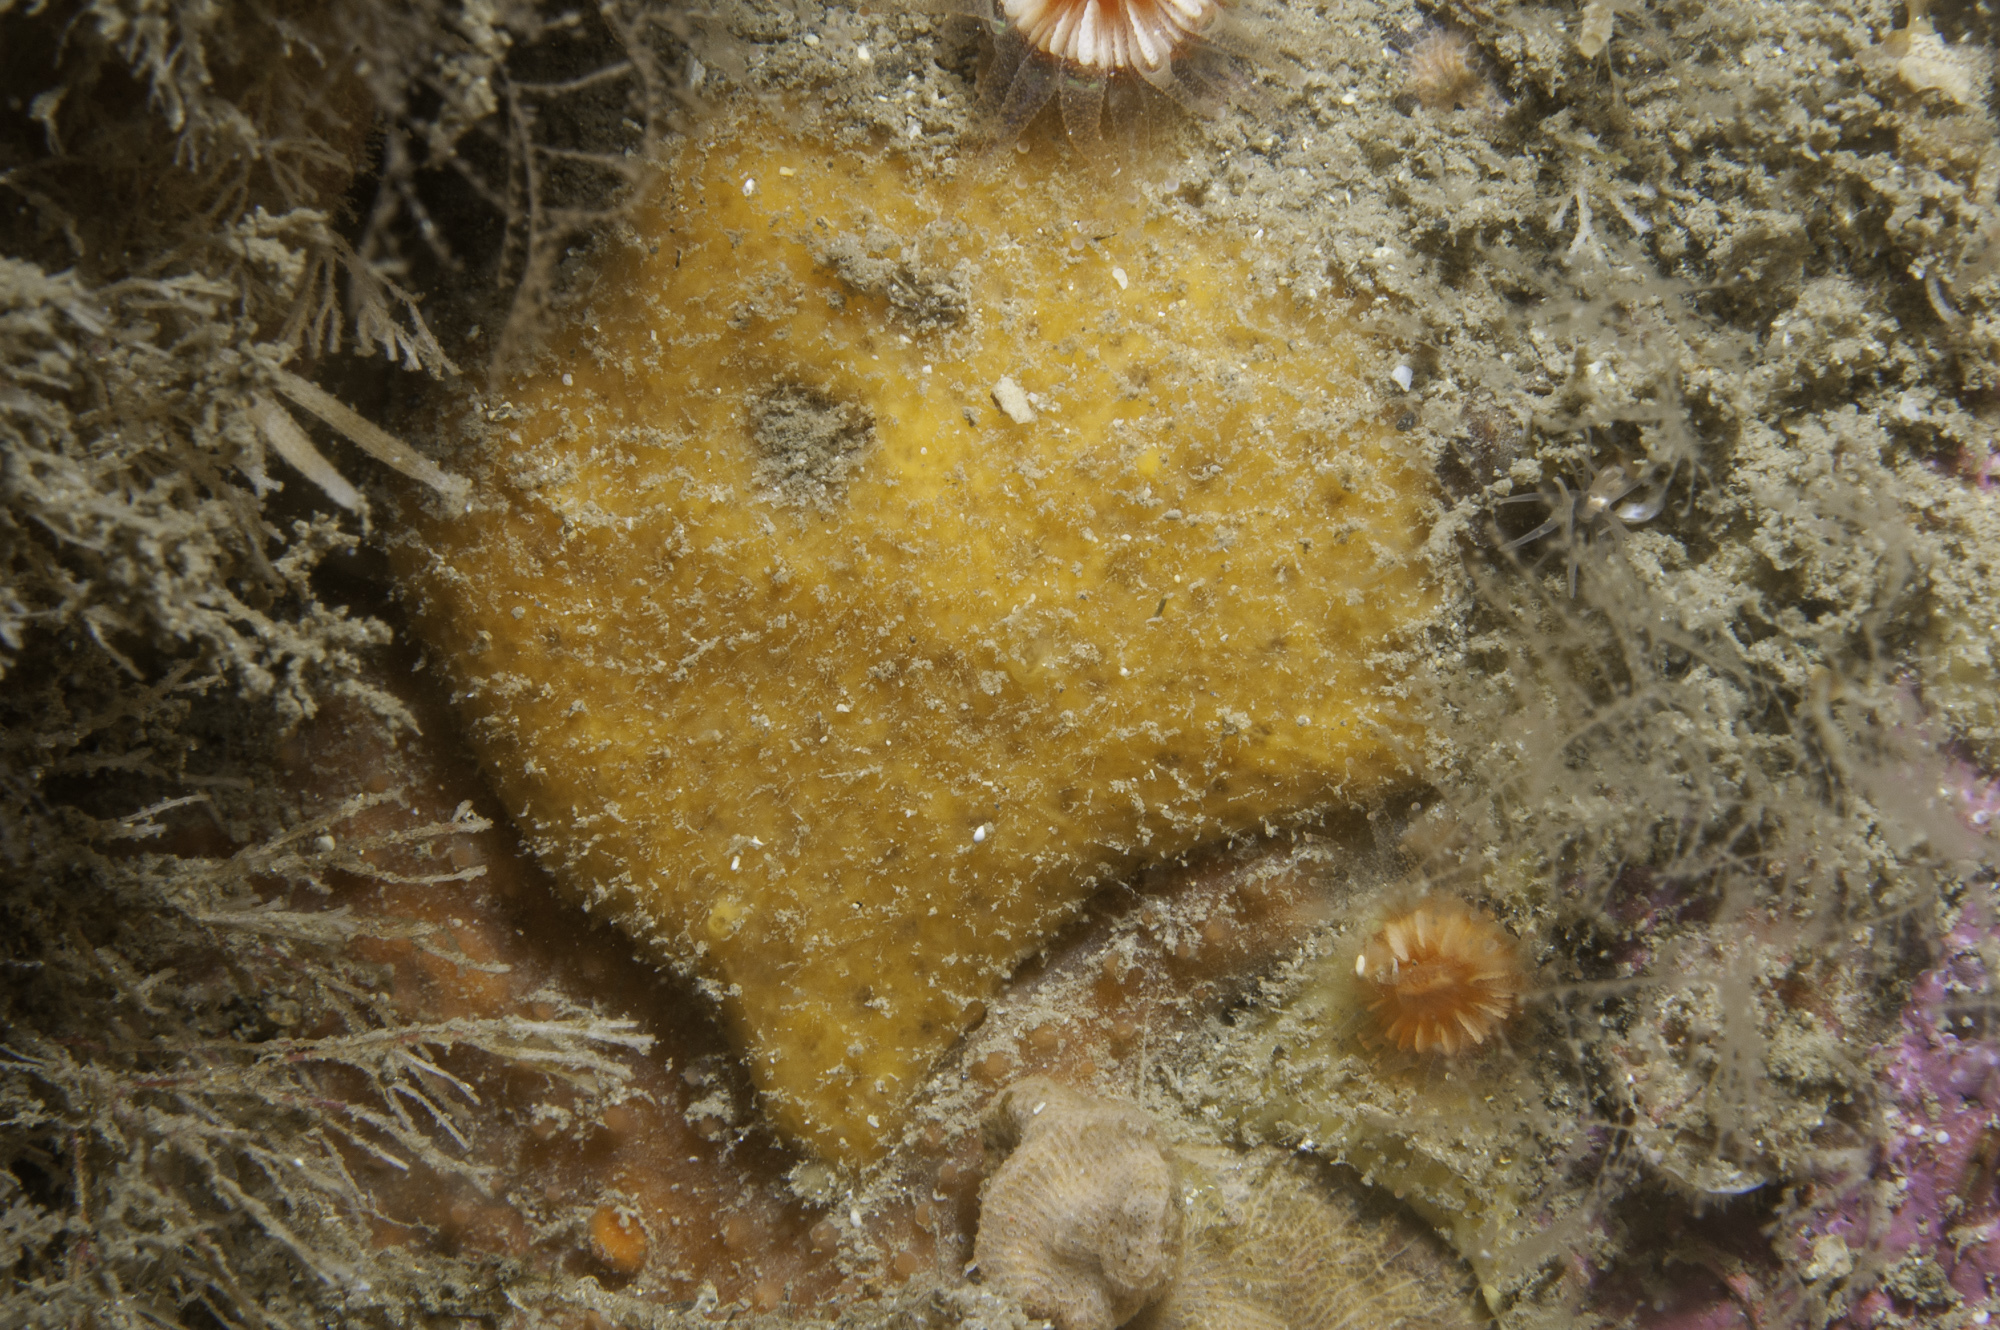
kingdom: Animalia
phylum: Porifera
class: Demospongiae
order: Axinellida
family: Stelligeridae
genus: Paratimea
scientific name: Paratimea aurantiaca
